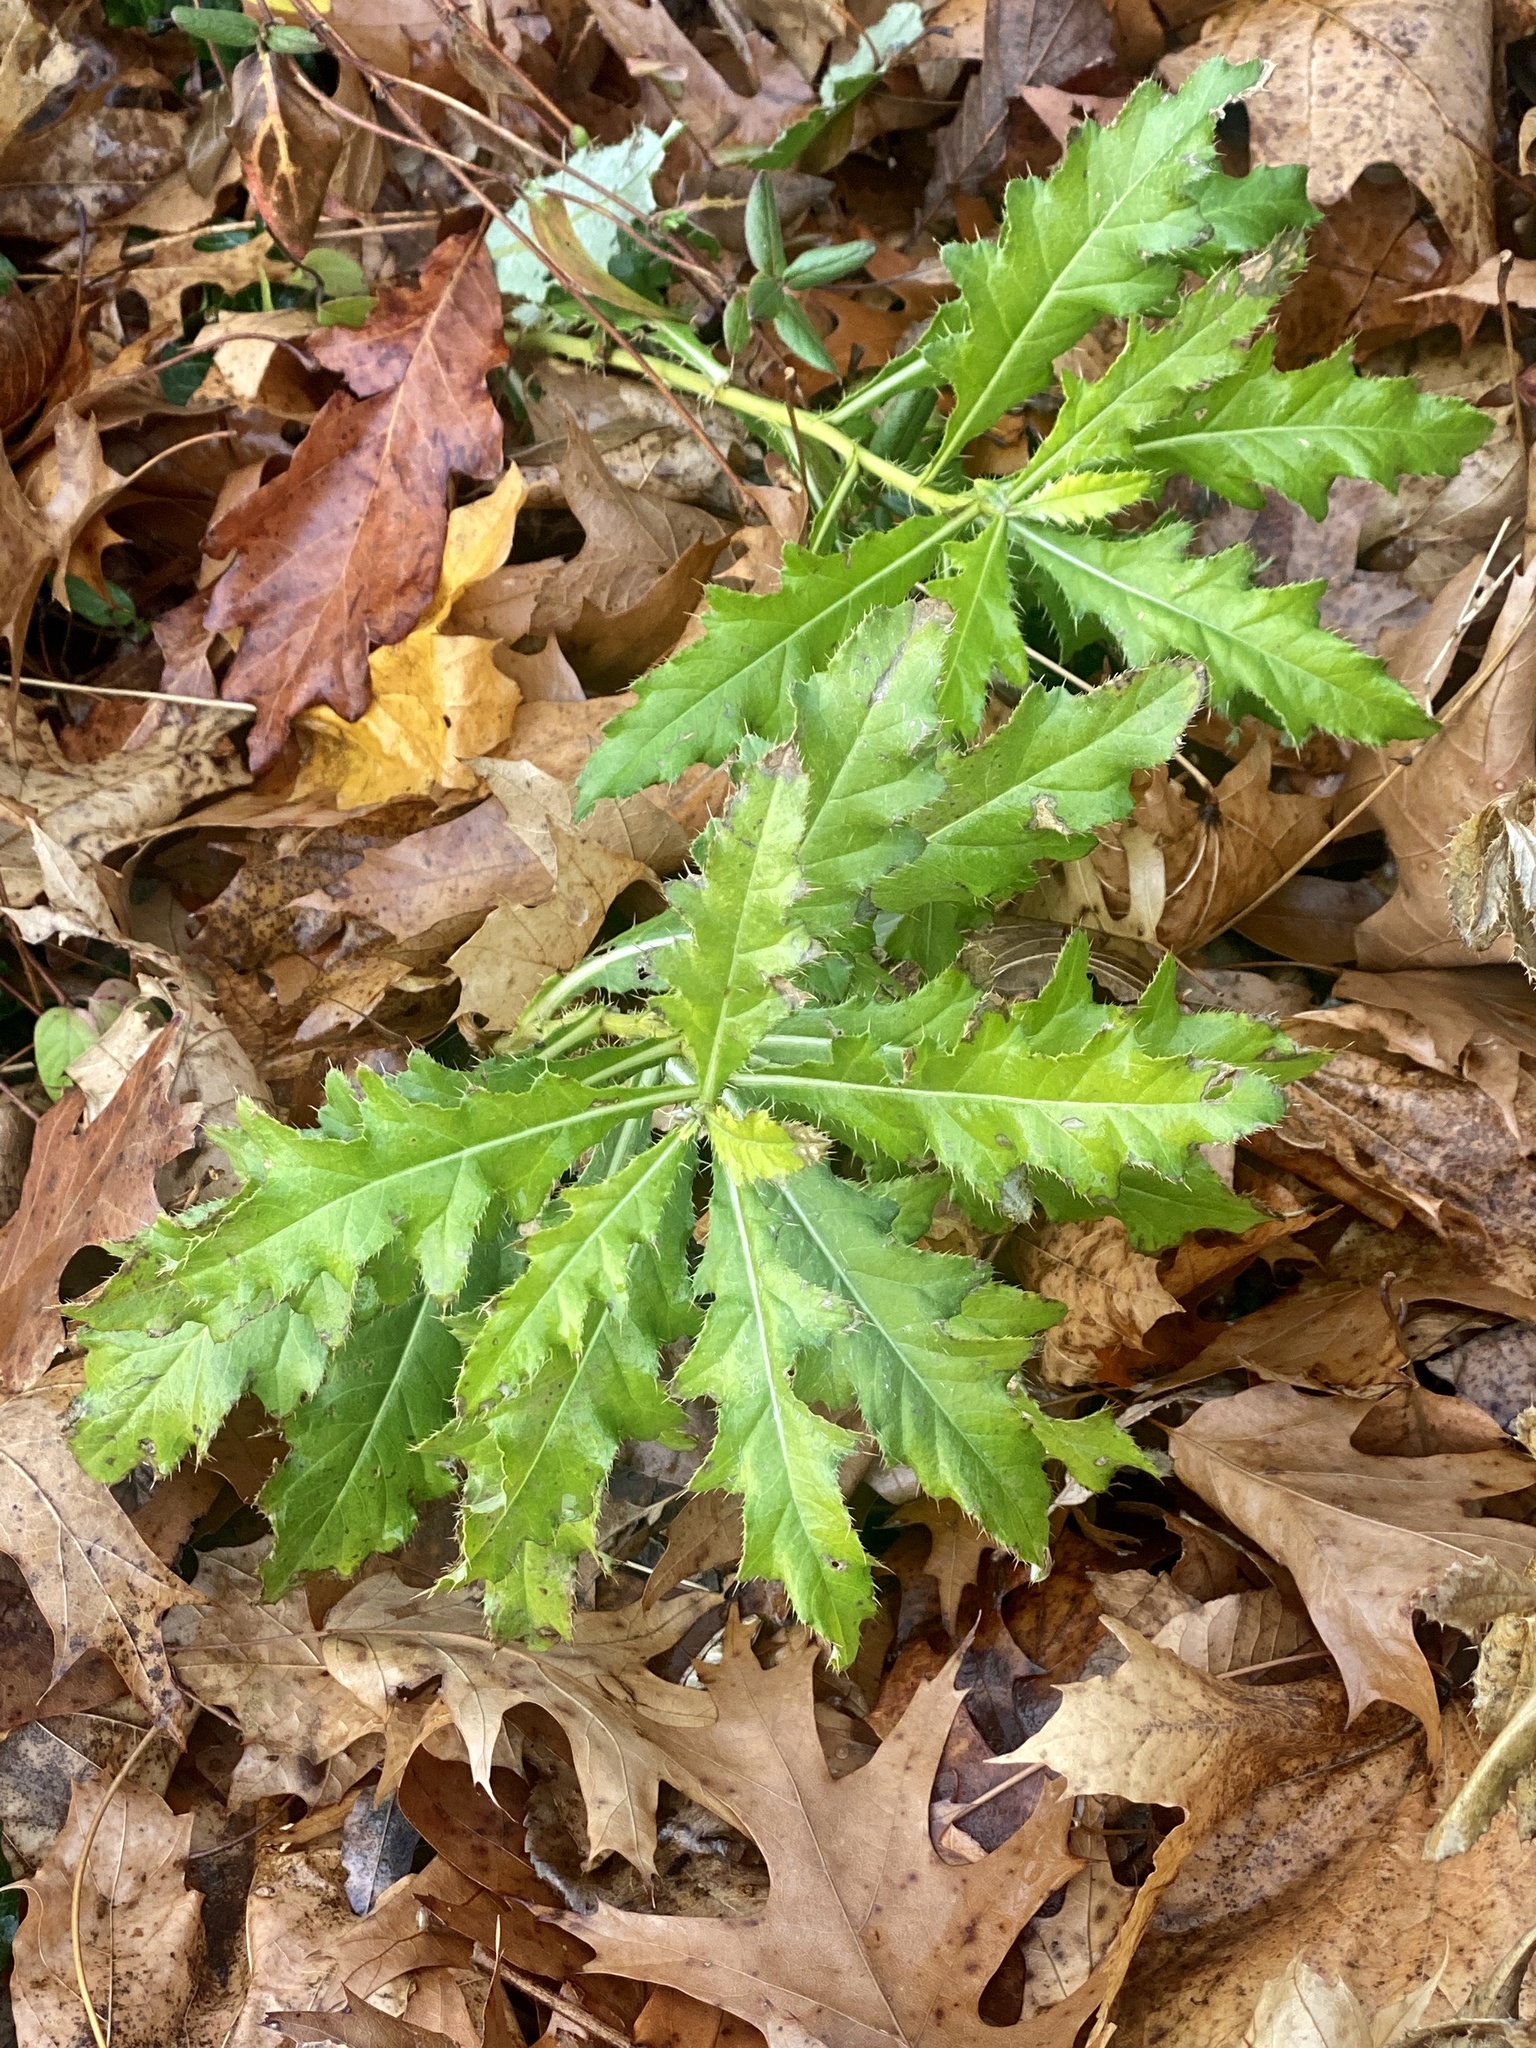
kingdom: Plantae
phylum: Tracheophyta
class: Magnoliopsida
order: Asterales
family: Asteraceae
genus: Cirsium
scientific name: Cirsium arvense
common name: Creeping thistle
